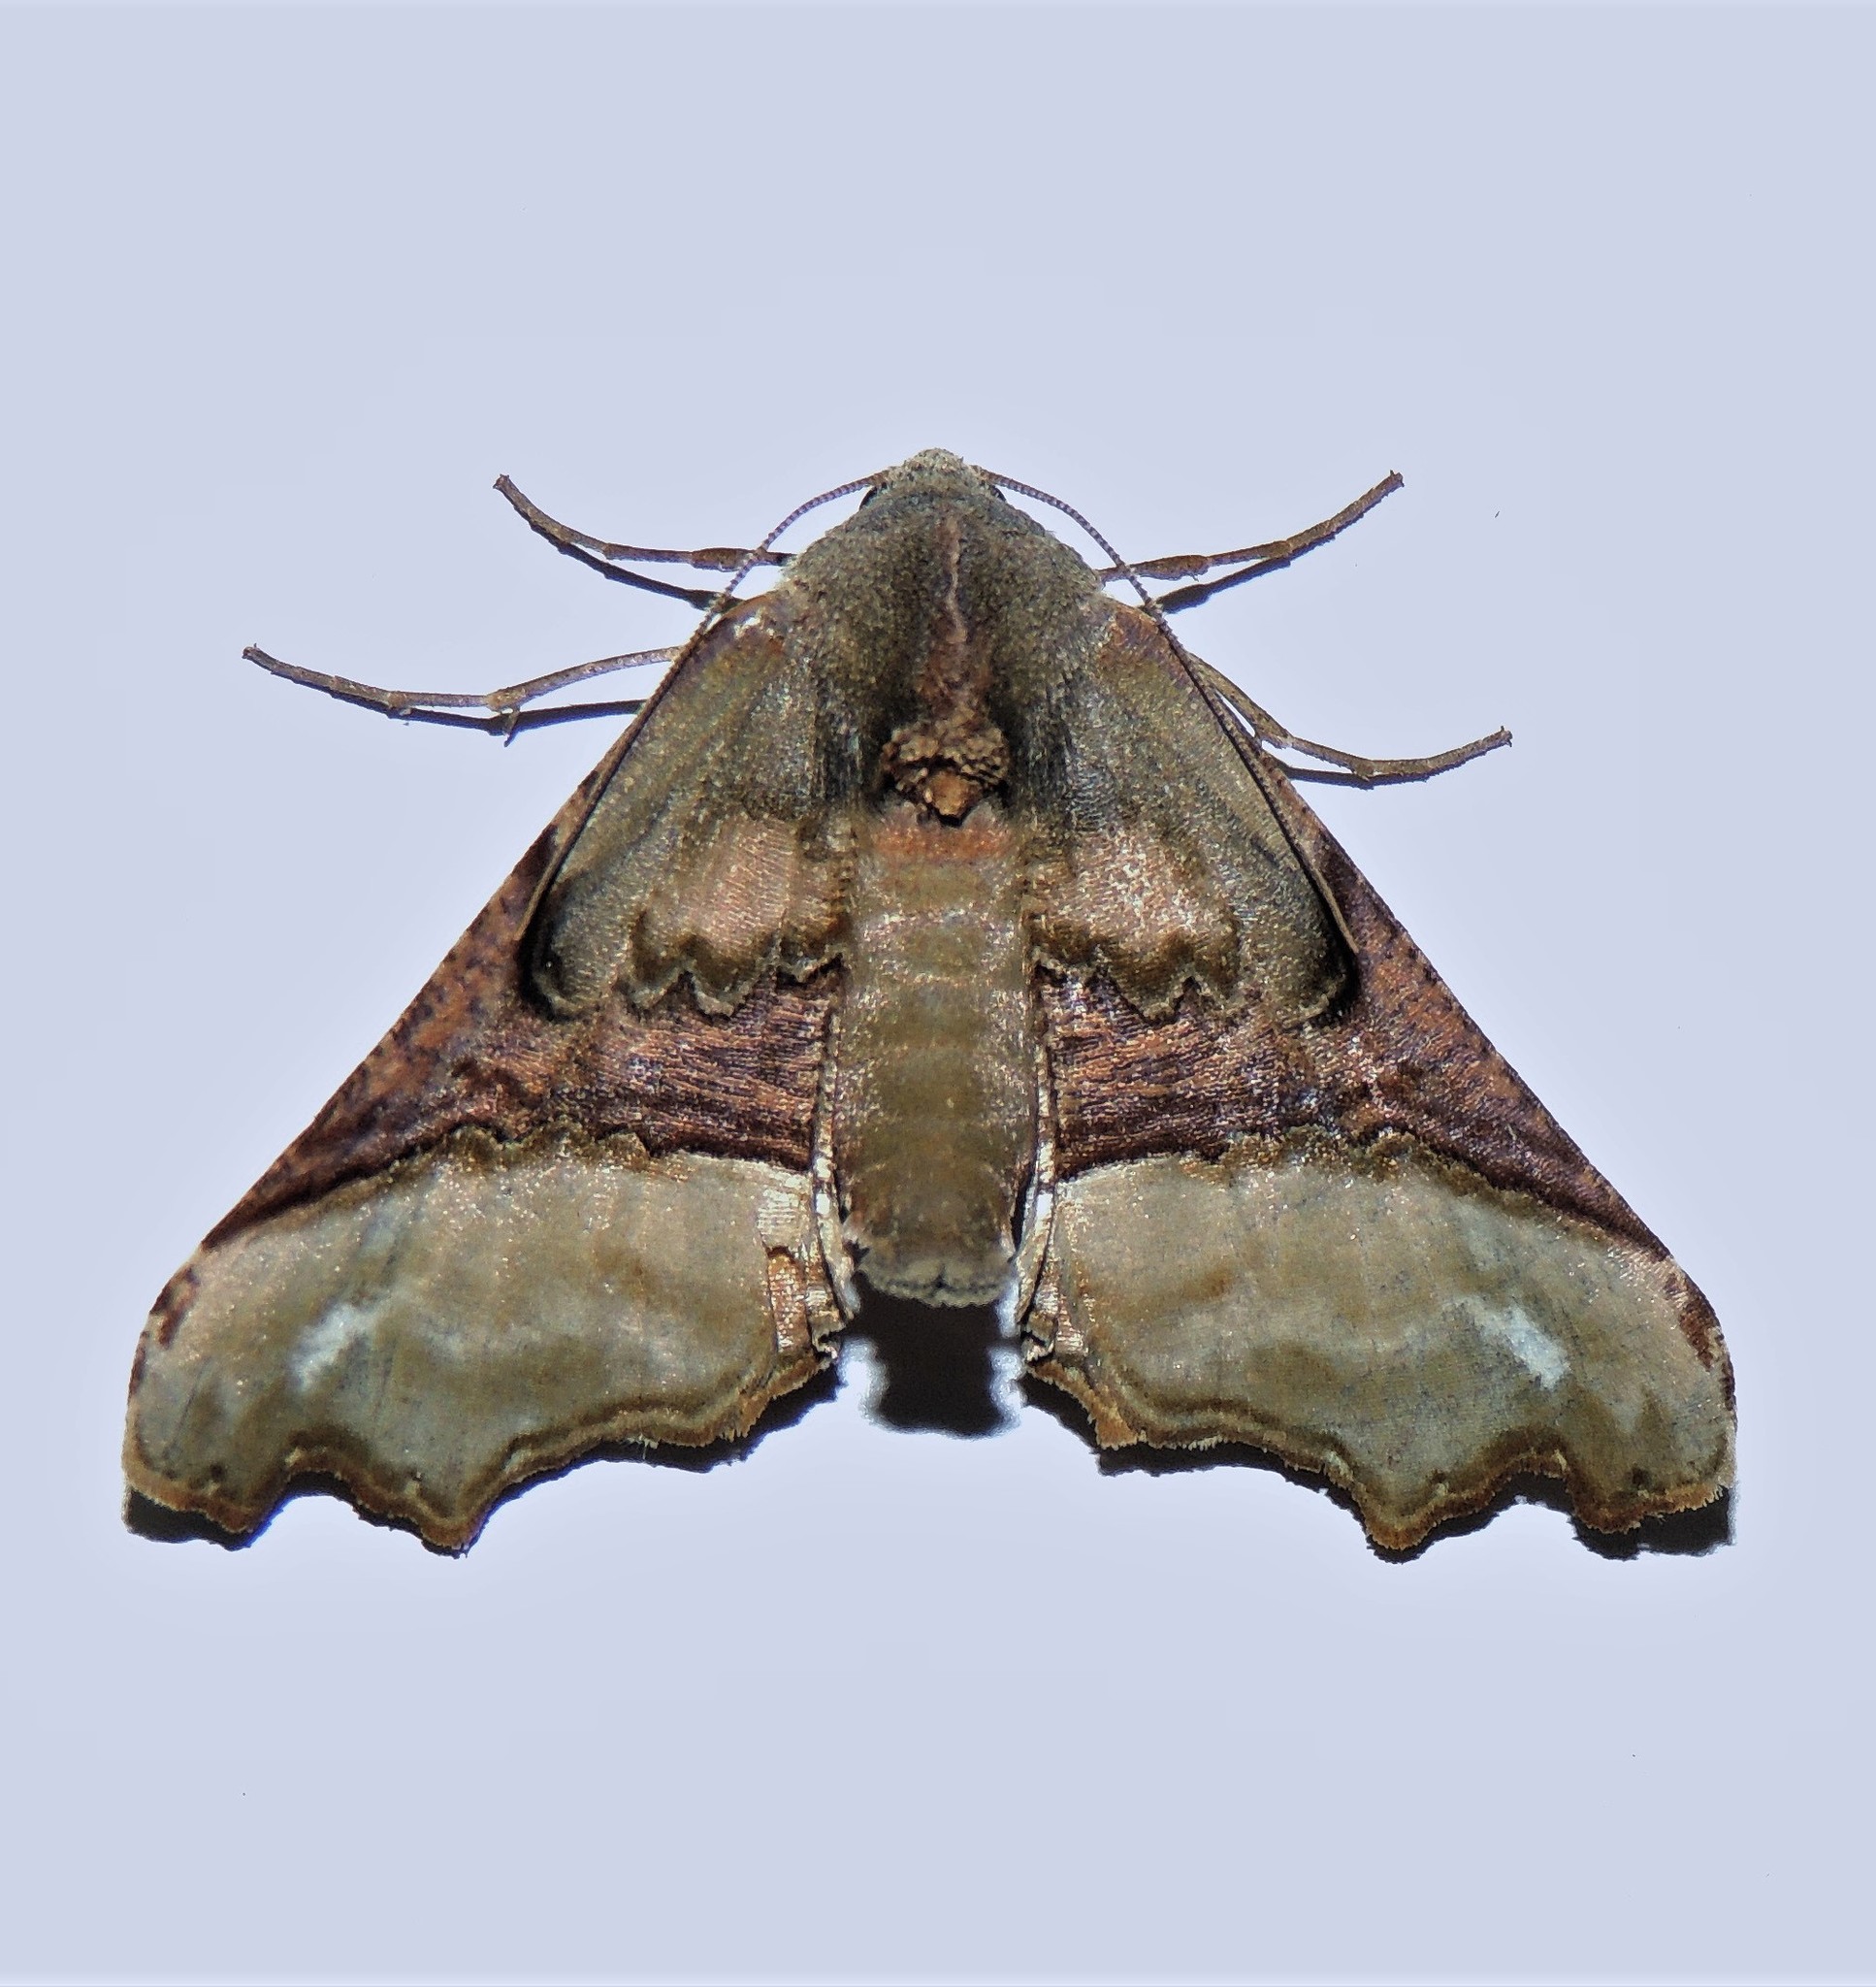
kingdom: Animalia
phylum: Arthropoda
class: Insecta
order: Lepidoptera
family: Geometridae
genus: Pero
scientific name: Pero costa
